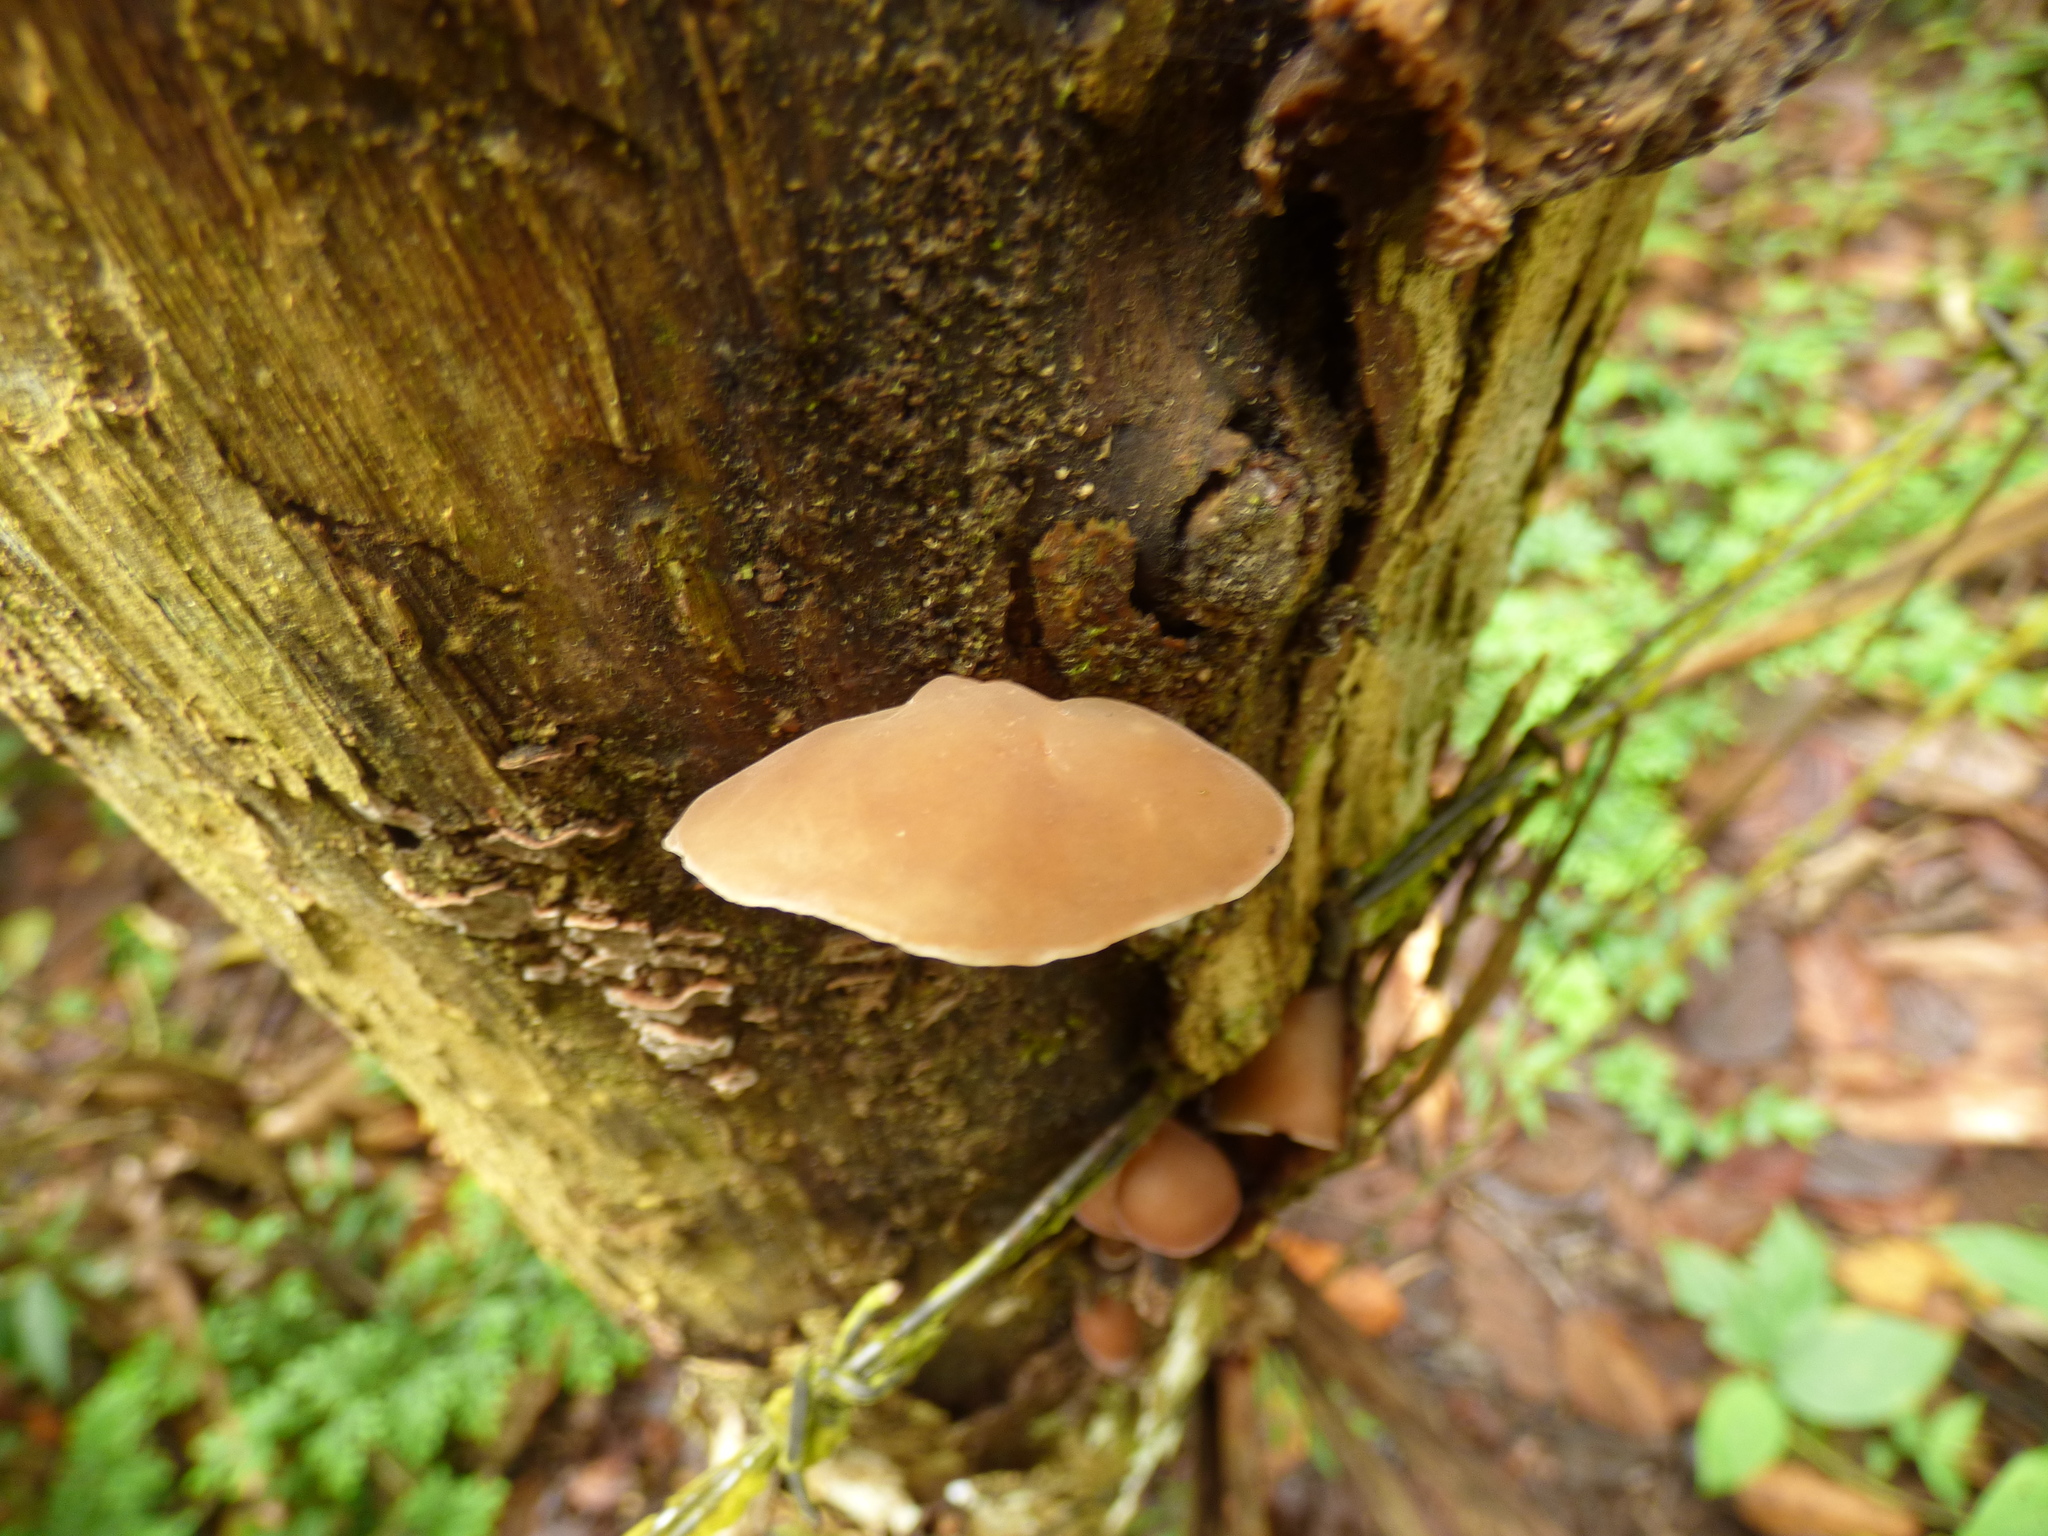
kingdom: Fungi
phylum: Basidiomycota
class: Agaricomycetes
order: Auriculariales
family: Auriculariaceae
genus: Auricularia
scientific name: Auricularia delicata
